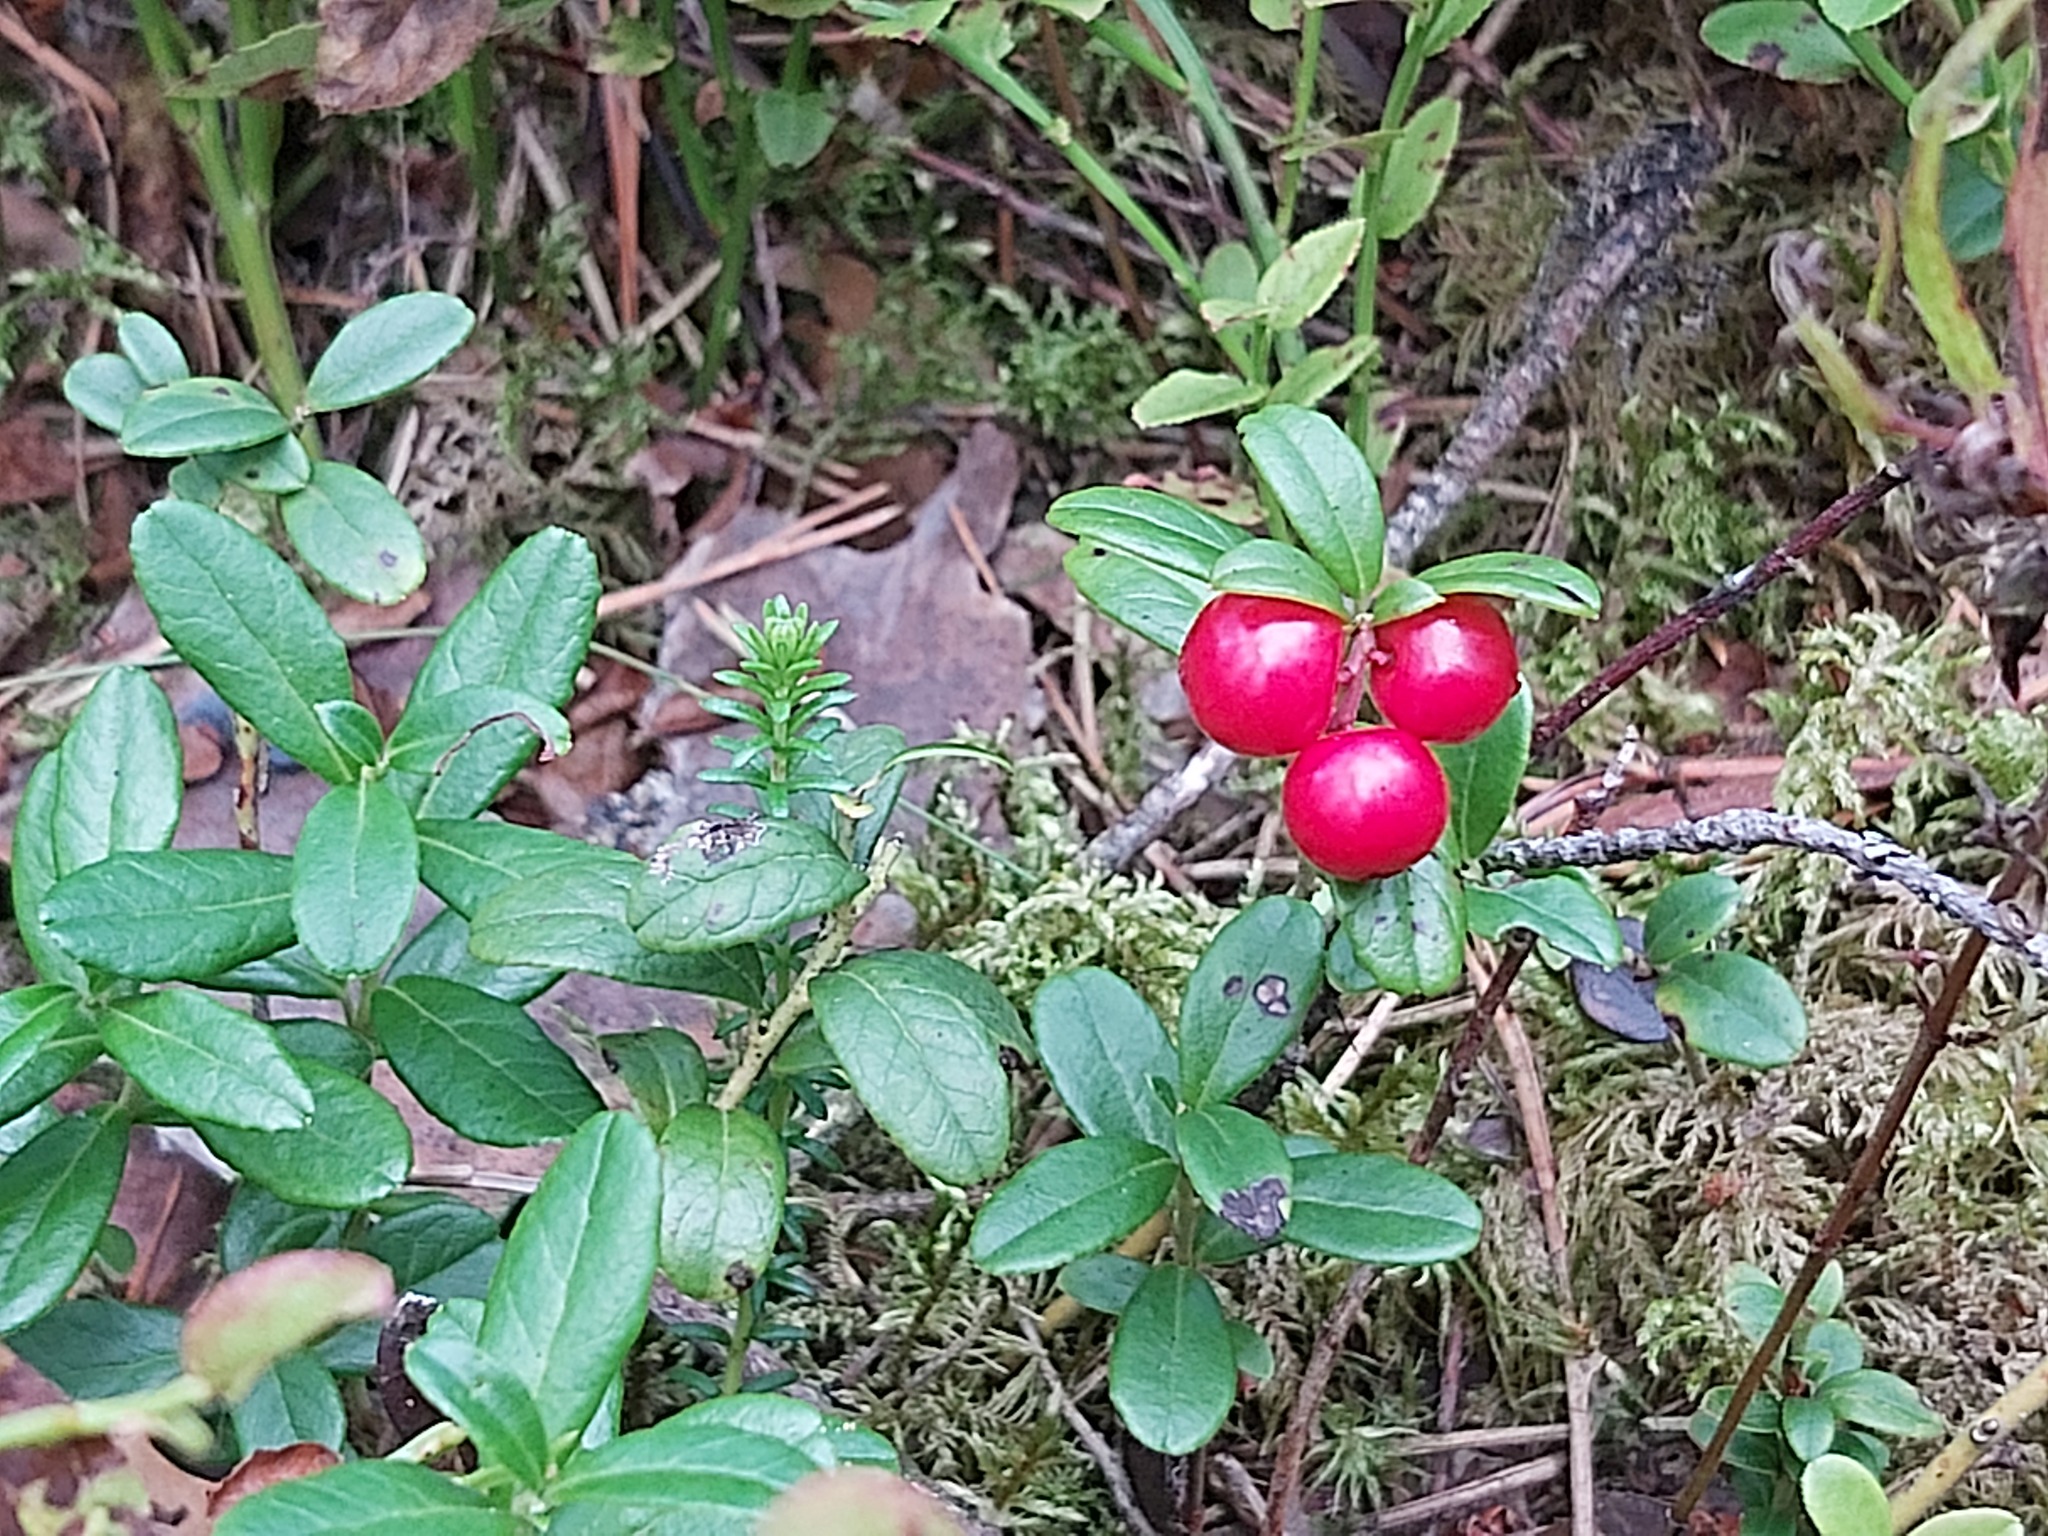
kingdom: Plantae
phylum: Tracheophyta
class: Magnoliopsida
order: Ericales
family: Ericaceae
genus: Vaccinium
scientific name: Vaccinium vitis-idaea
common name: Cowberry
